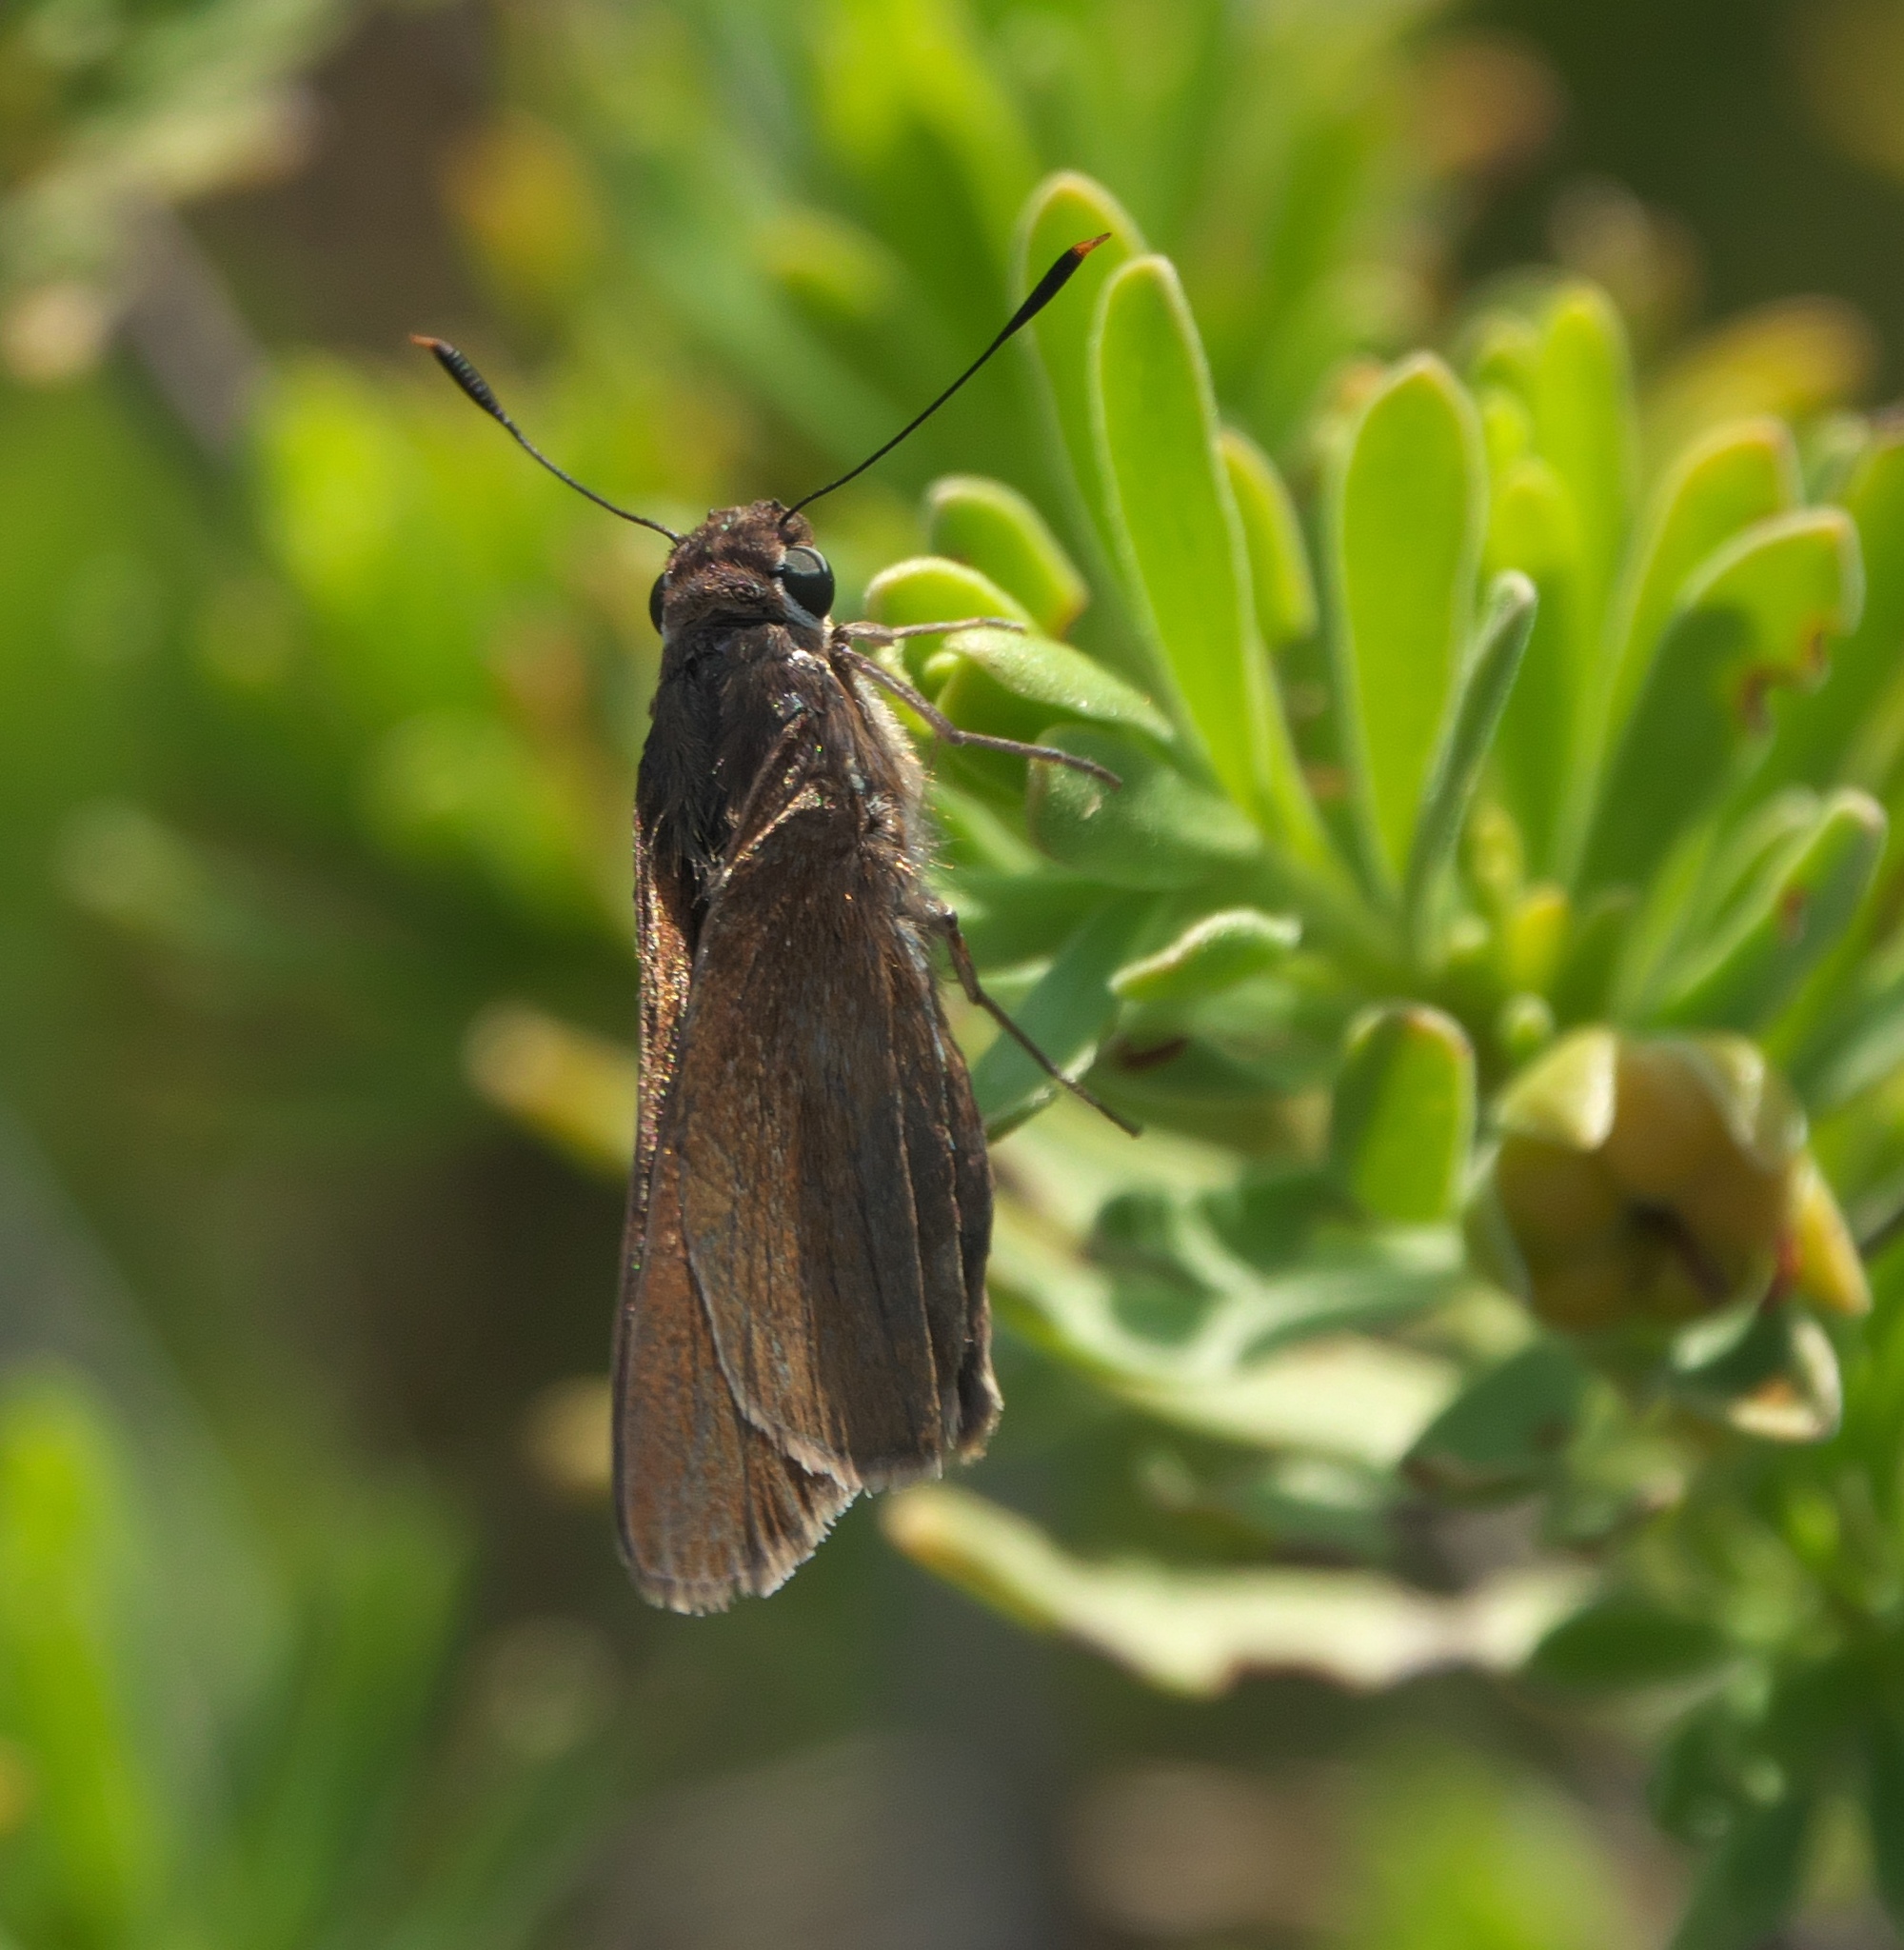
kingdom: Animalia
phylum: Arthropoda
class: Insecta
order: Lepidoptera
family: Hesperiidae
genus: Asbolis
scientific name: Asbolis capucinus
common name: Monk skipper
